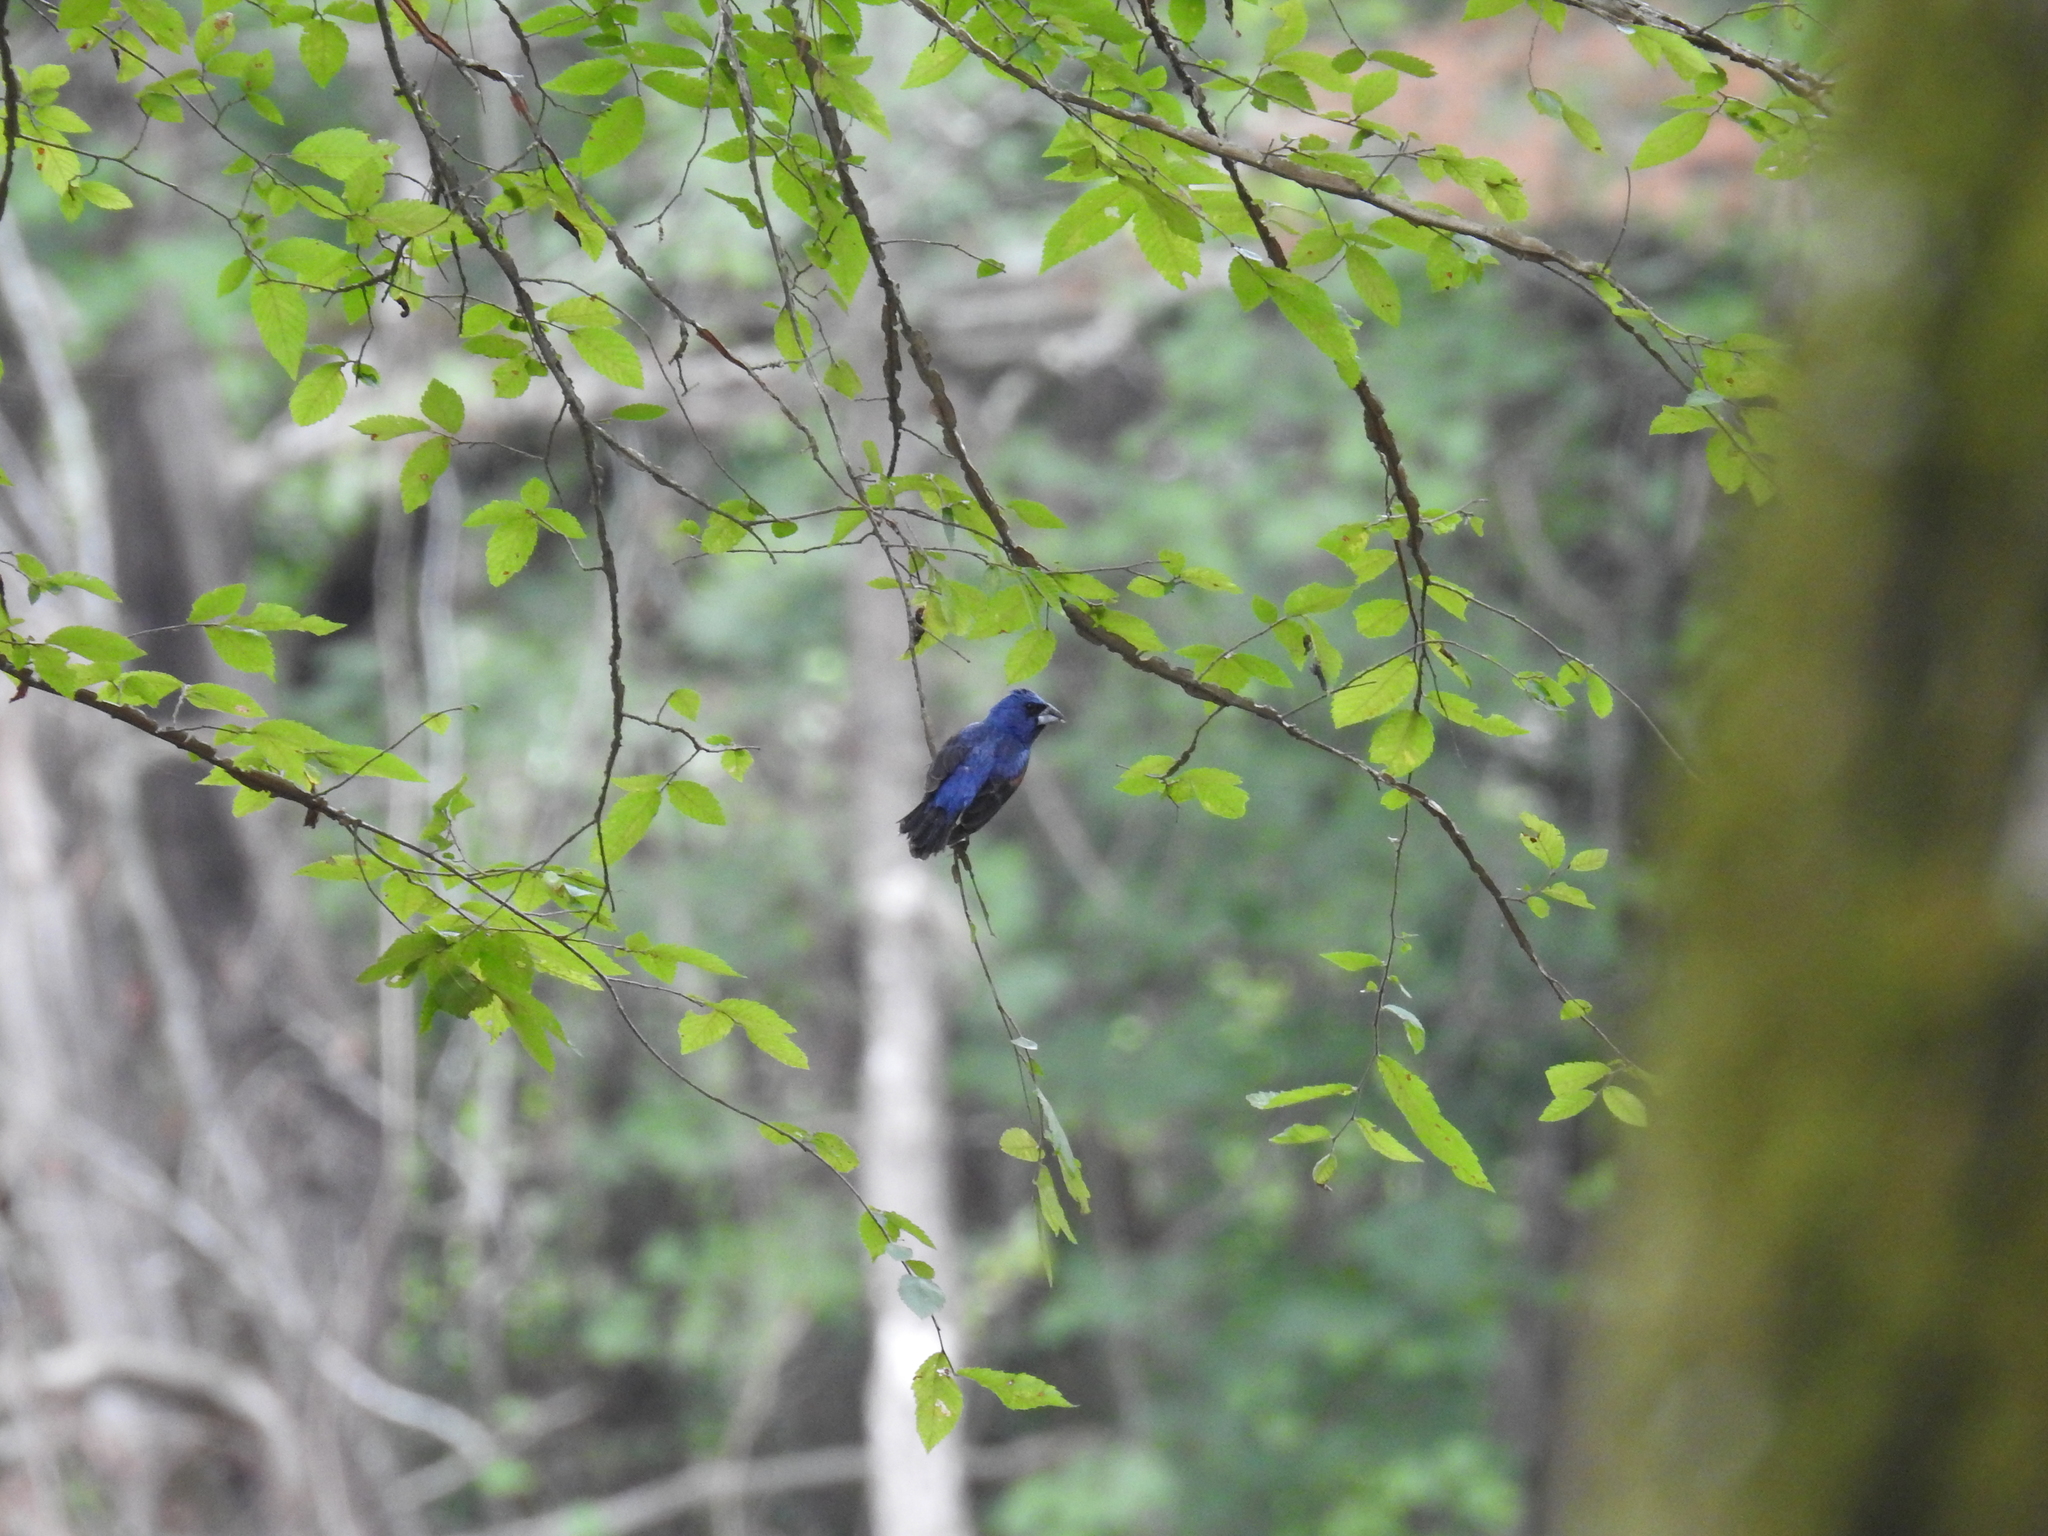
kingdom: Animalia
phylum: Chordata
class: Aves
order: Passeriformes
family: Cardinalidae
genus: Passerina
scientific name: Passerina caerulea
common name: Blue grosbeak
